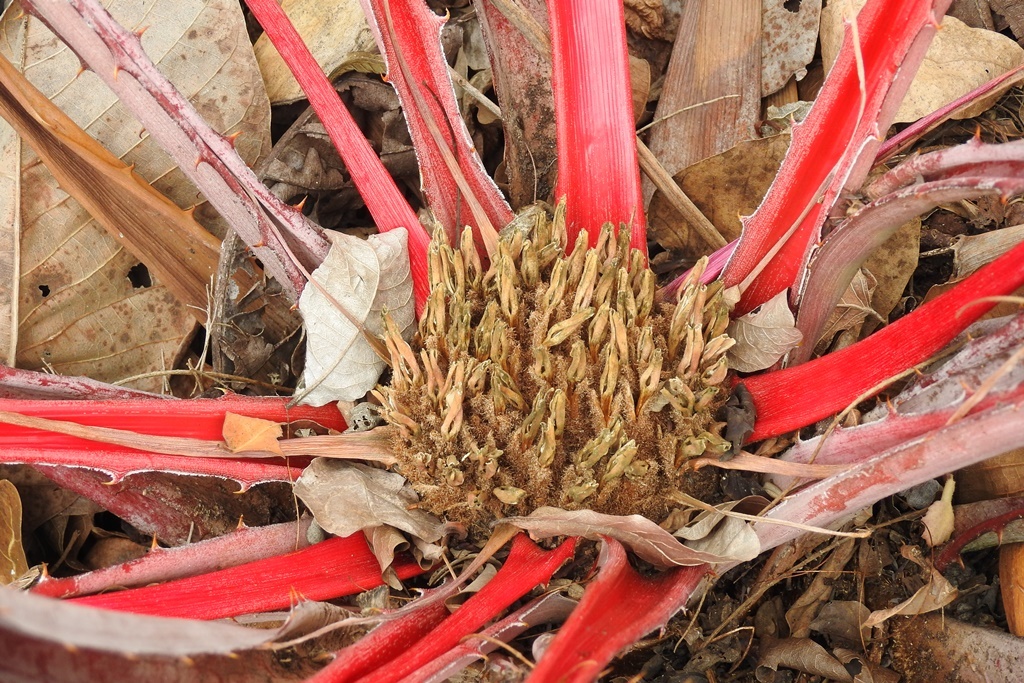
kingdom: Plantae
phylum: Tracheophyta
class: Liliopsida
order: Poales
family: Bromeliaceae
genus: Bromelia
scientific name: Bromelia karatas
